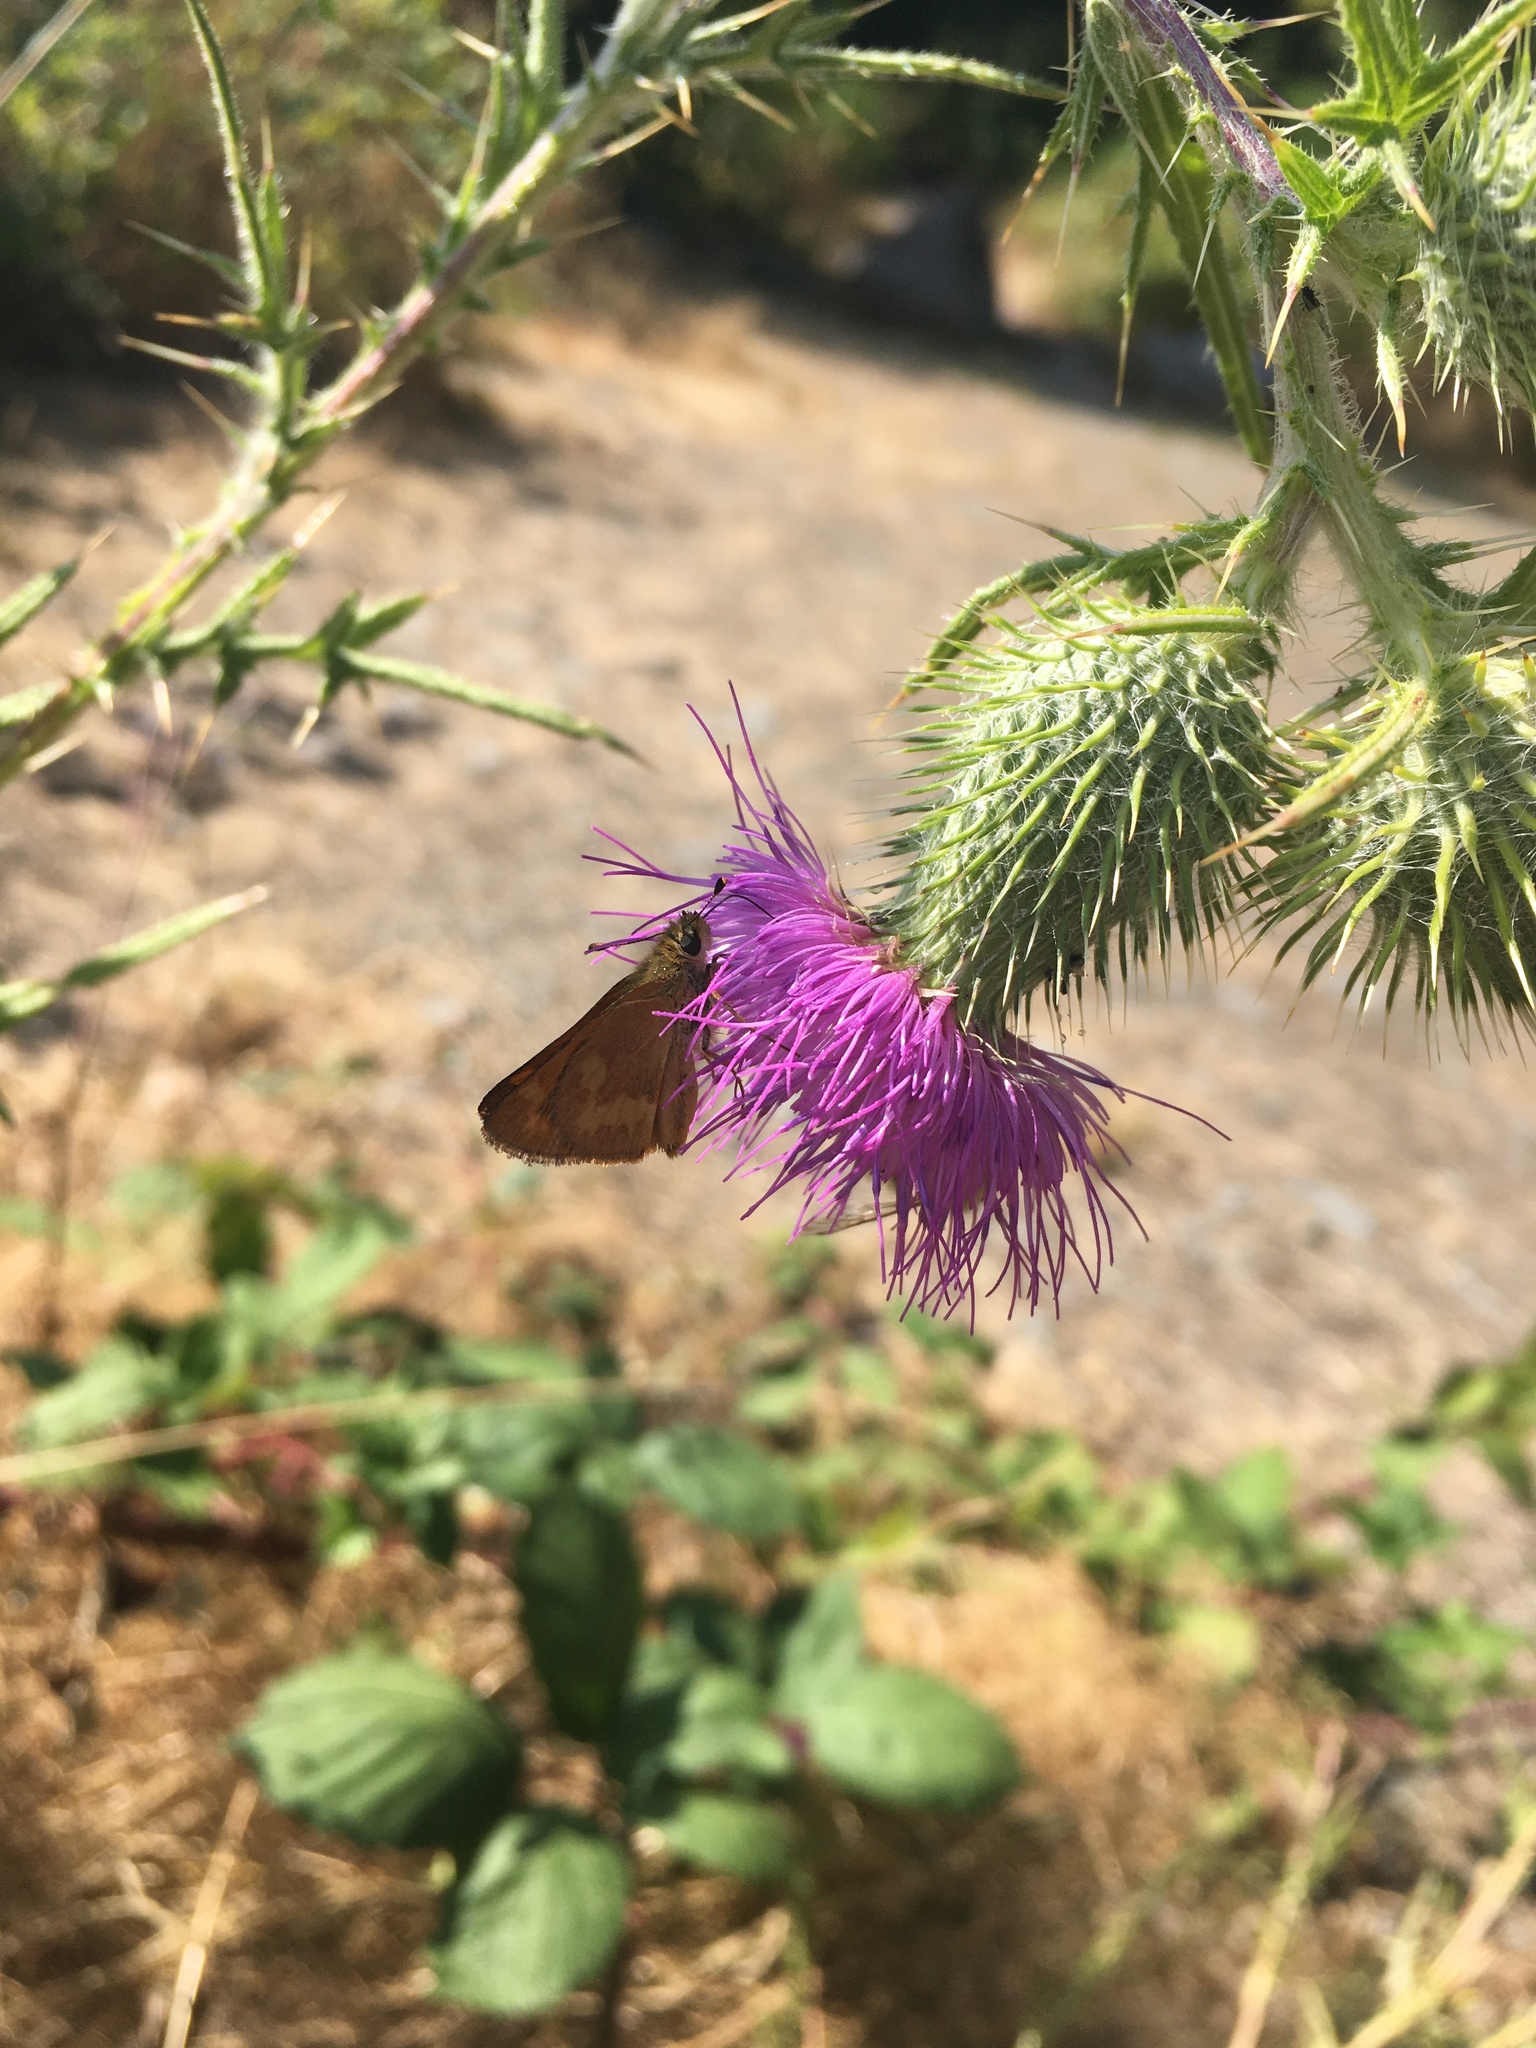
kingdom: Animalia
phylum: Arthropoda
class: Insecta
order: Lepidoptera
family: Hesperiidae
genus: Ochlodes
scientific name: Ochlodes sylvanoides
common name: Woodland skipper
